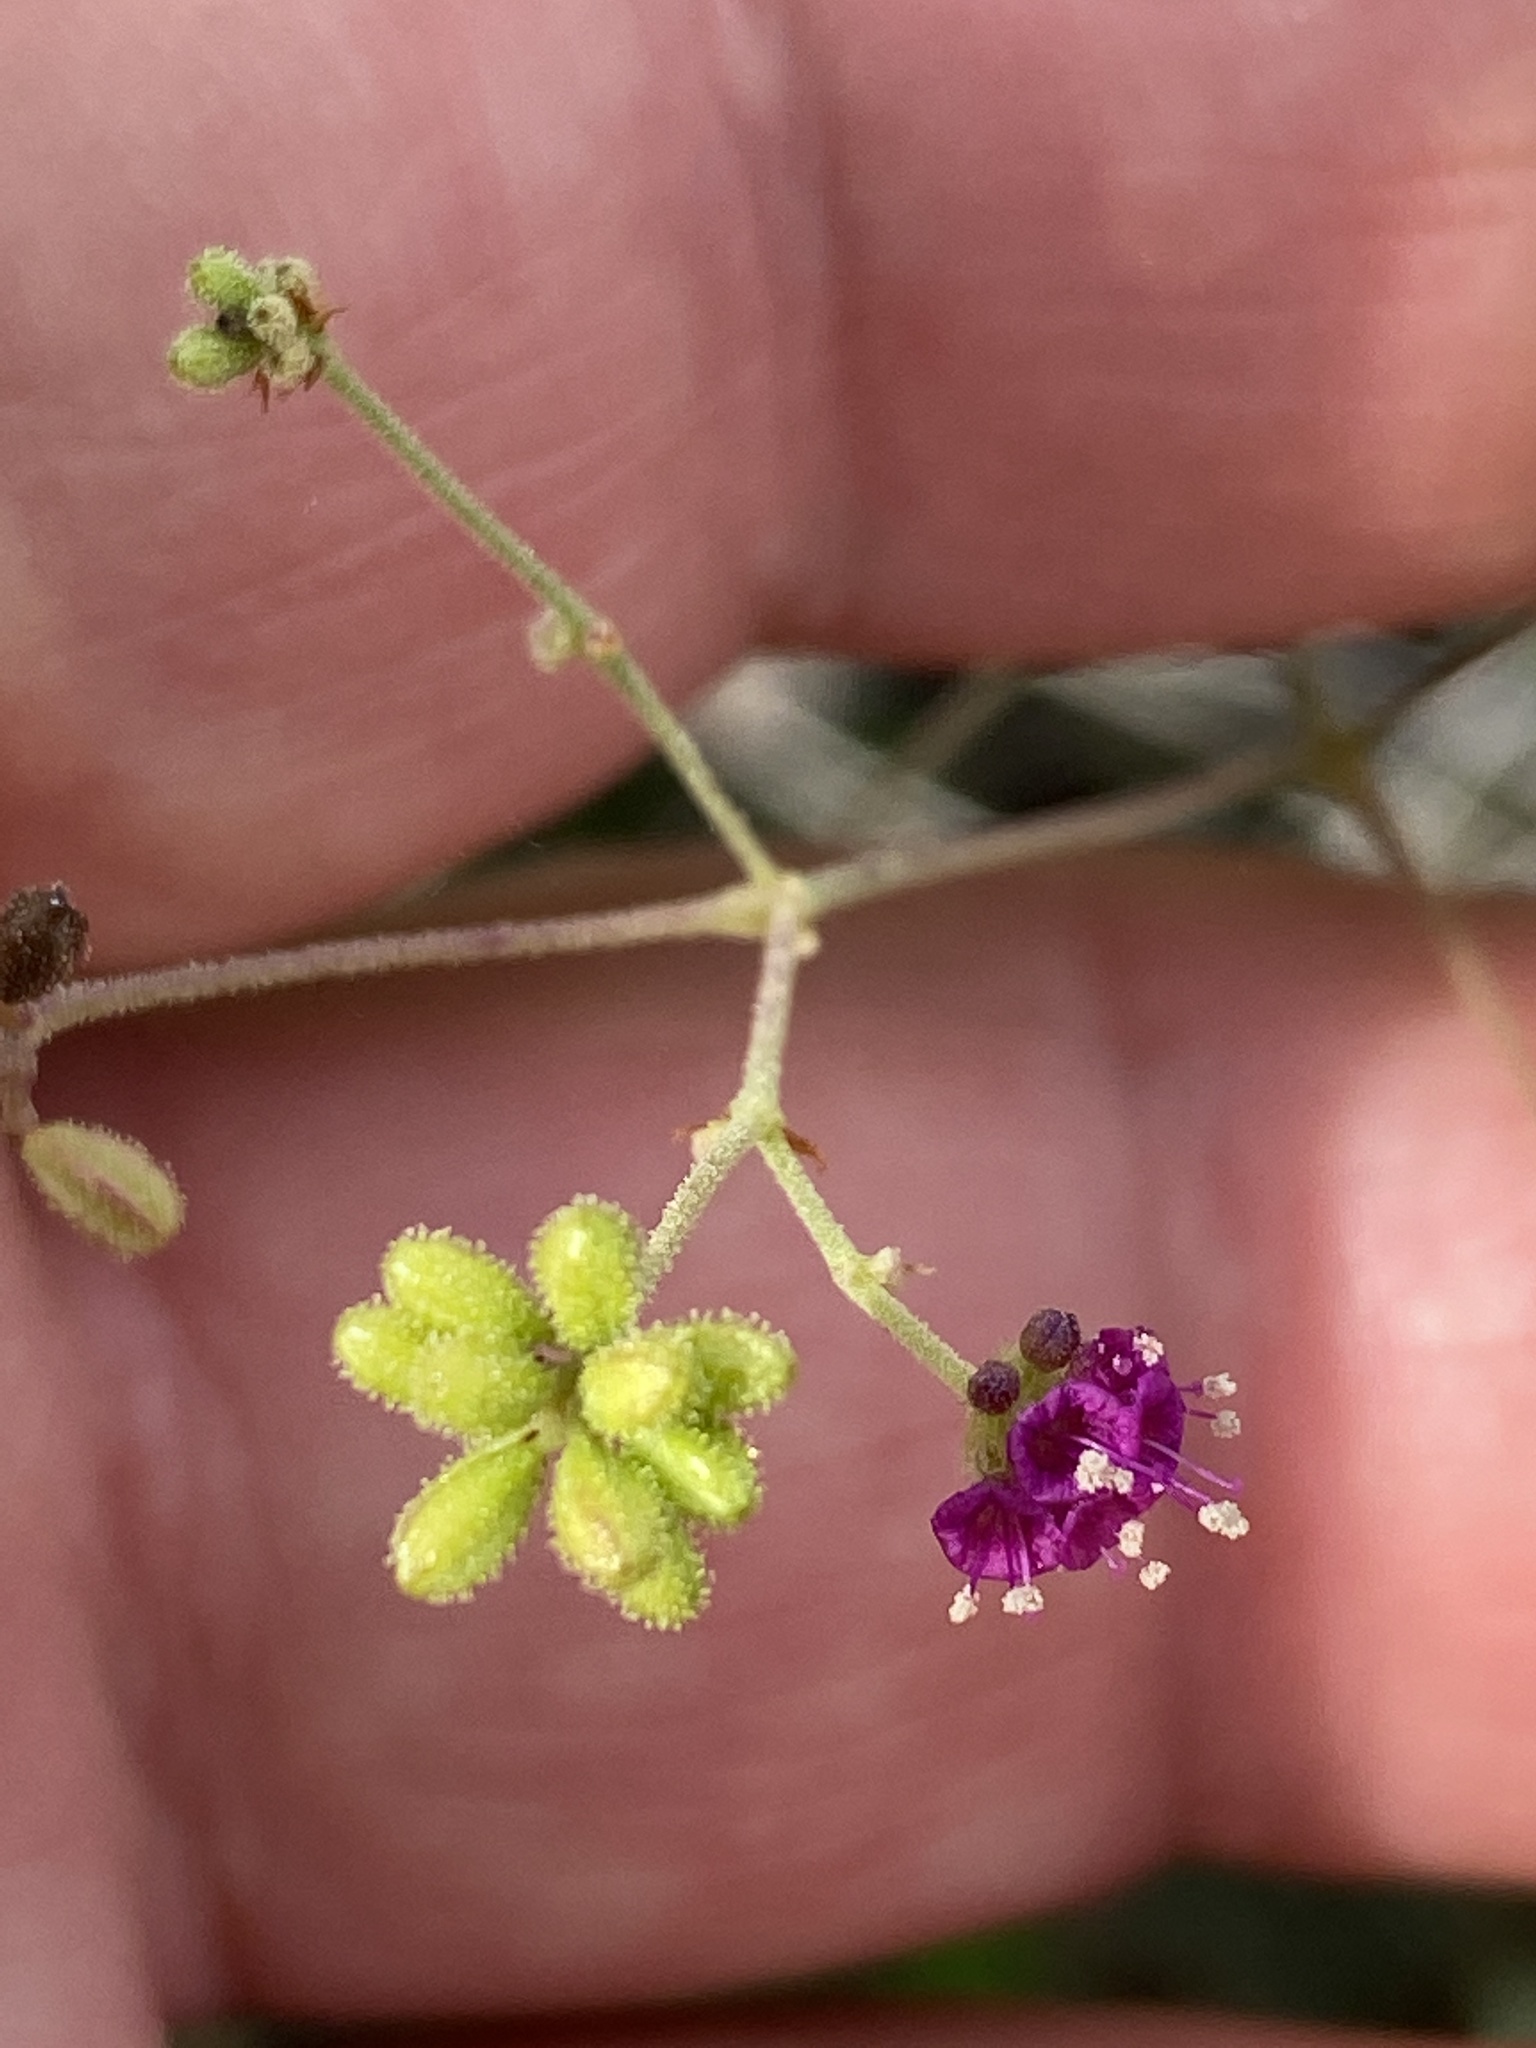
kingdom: Plantae
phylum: Tracheophyta
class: Magnoliopsida
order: Caryophyllales
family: Nyctaginaceae
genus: Boerhavia
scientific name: Boerhavia coccinea
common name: Scarlet spiderling
